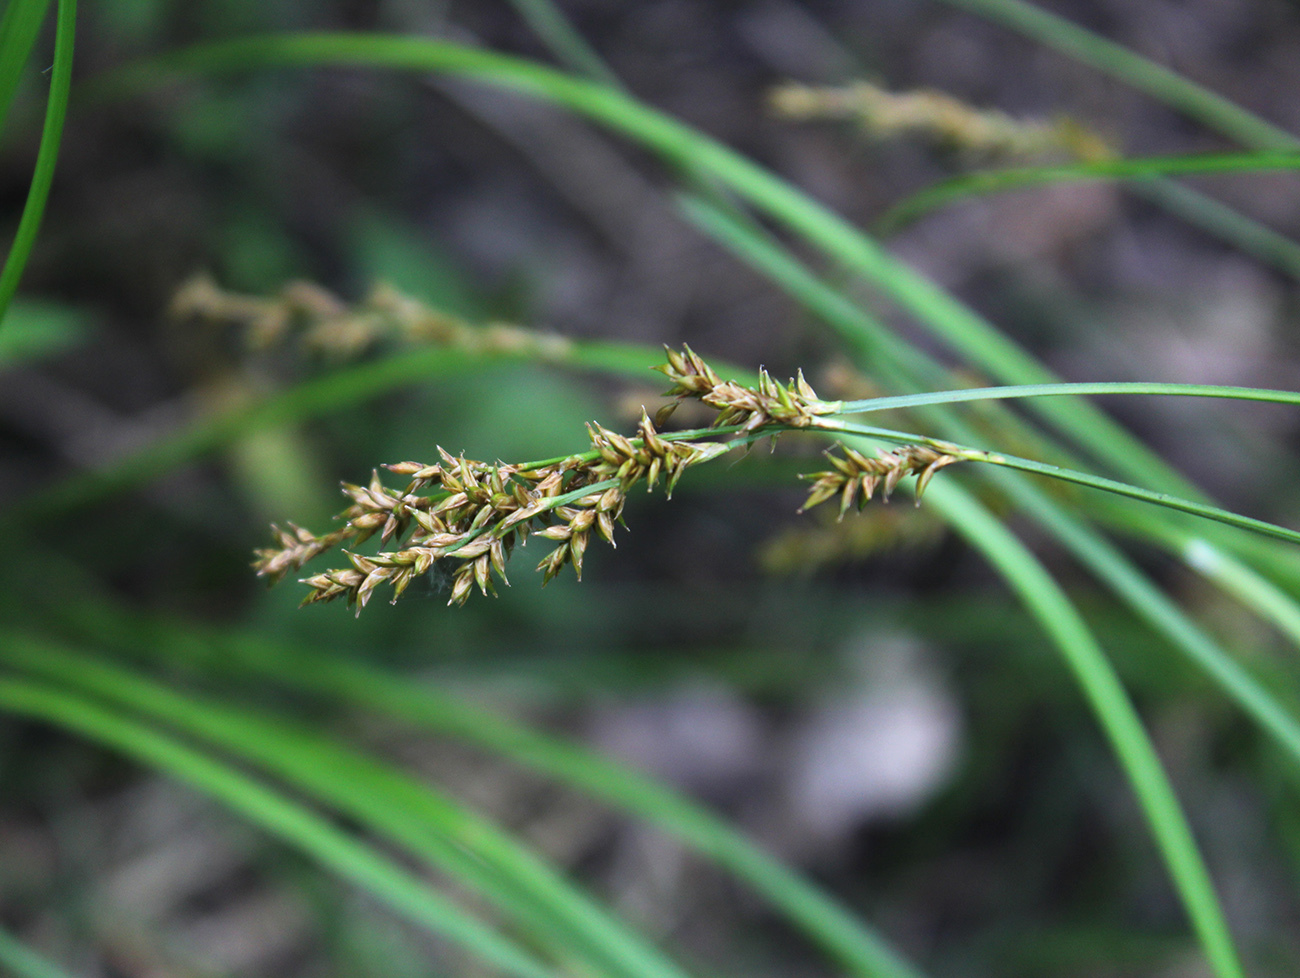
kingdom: Plantae
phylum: Tracheophyta
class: Liliopsida
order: Poales
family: Cyperaceae
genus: Carex
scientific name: Carex elongata
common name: Elongated sedge
